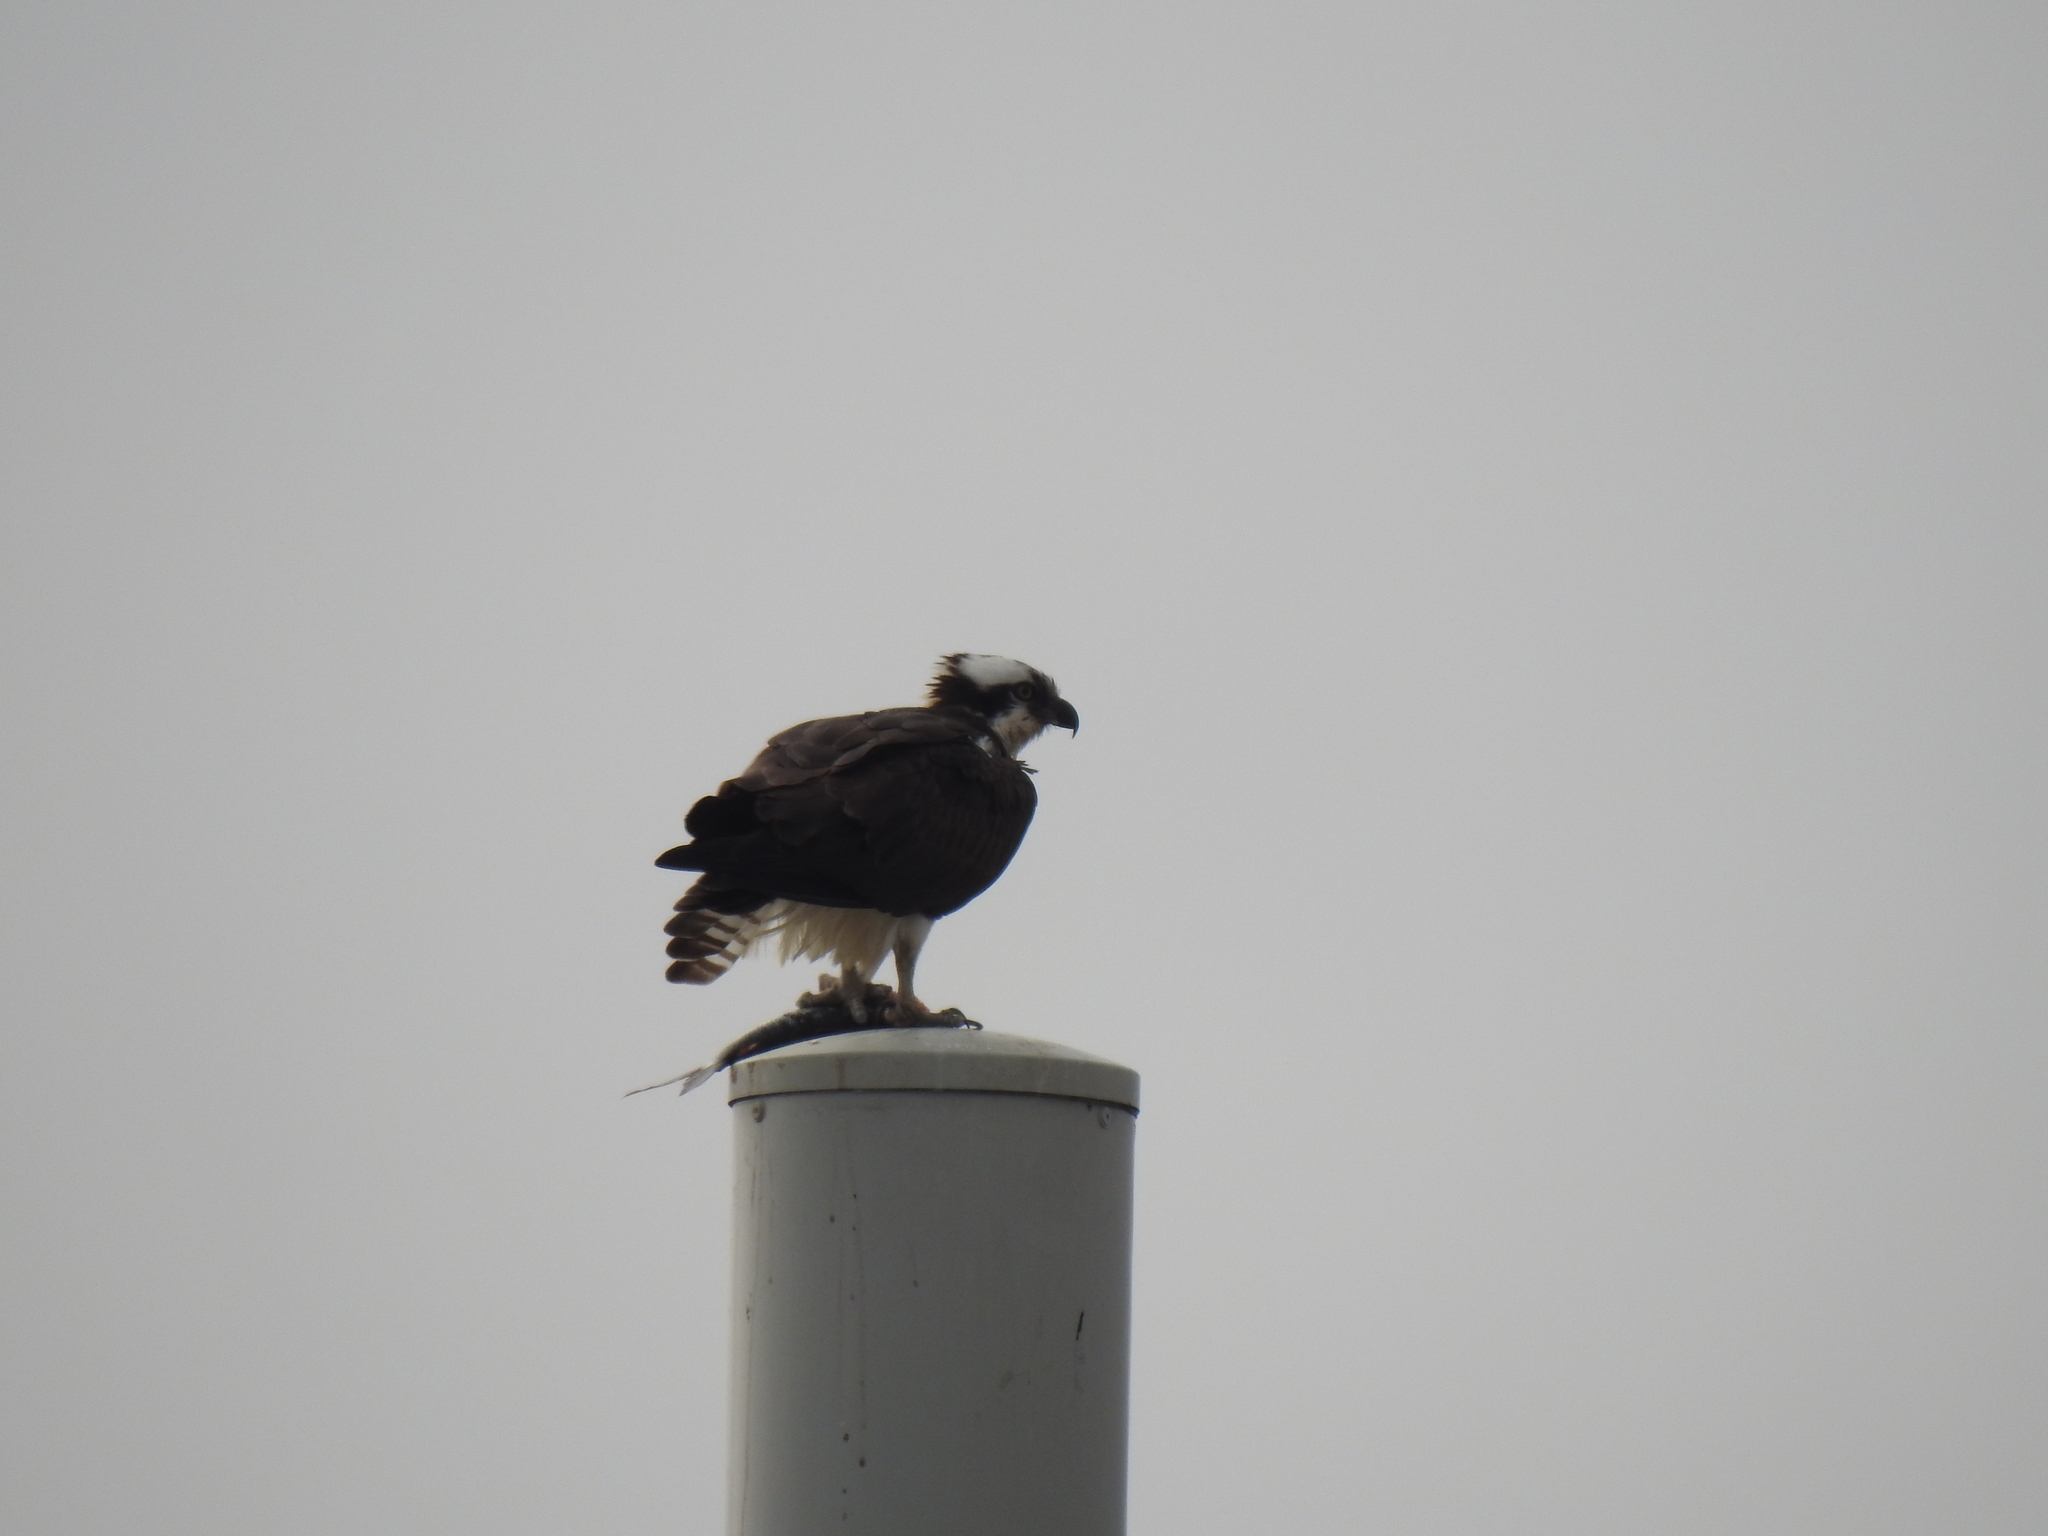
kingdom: Animalia
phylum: Chordata
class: Aves
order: Accipitriformes
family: Pandionidae
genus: Pandion
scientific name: Pandion haliaetus
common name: Osprey
